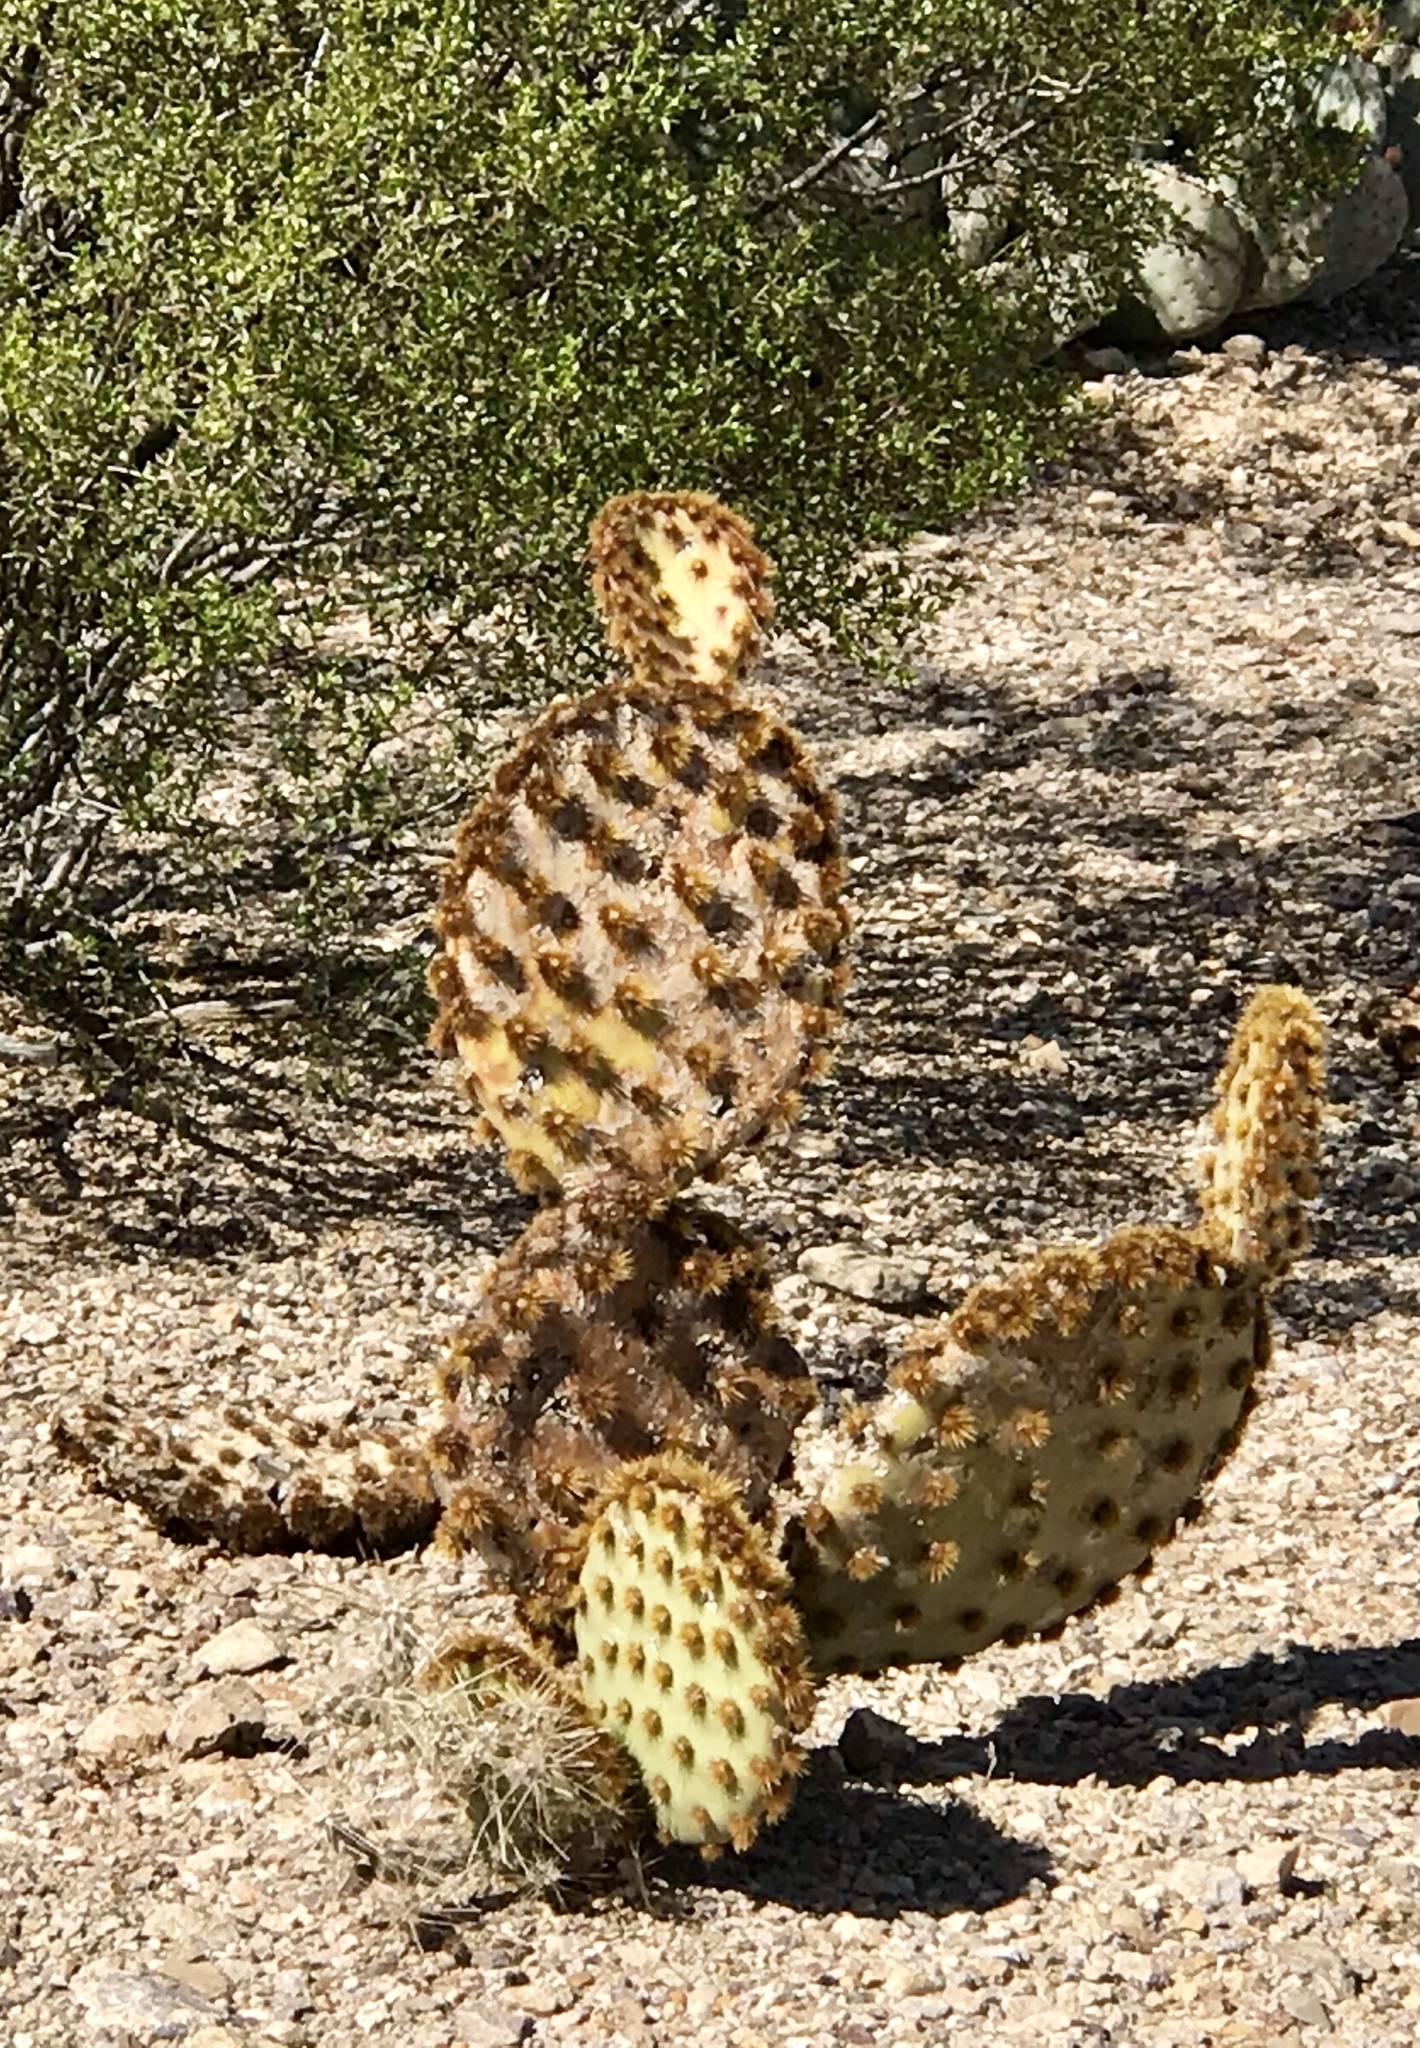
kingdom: Plantae
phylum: Tracheophyta
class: Magnoliopsida
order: Caryophyllales
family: Cactaceae
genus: Opuntia
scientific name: Opuntia rufida
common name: Blind pricklypear
